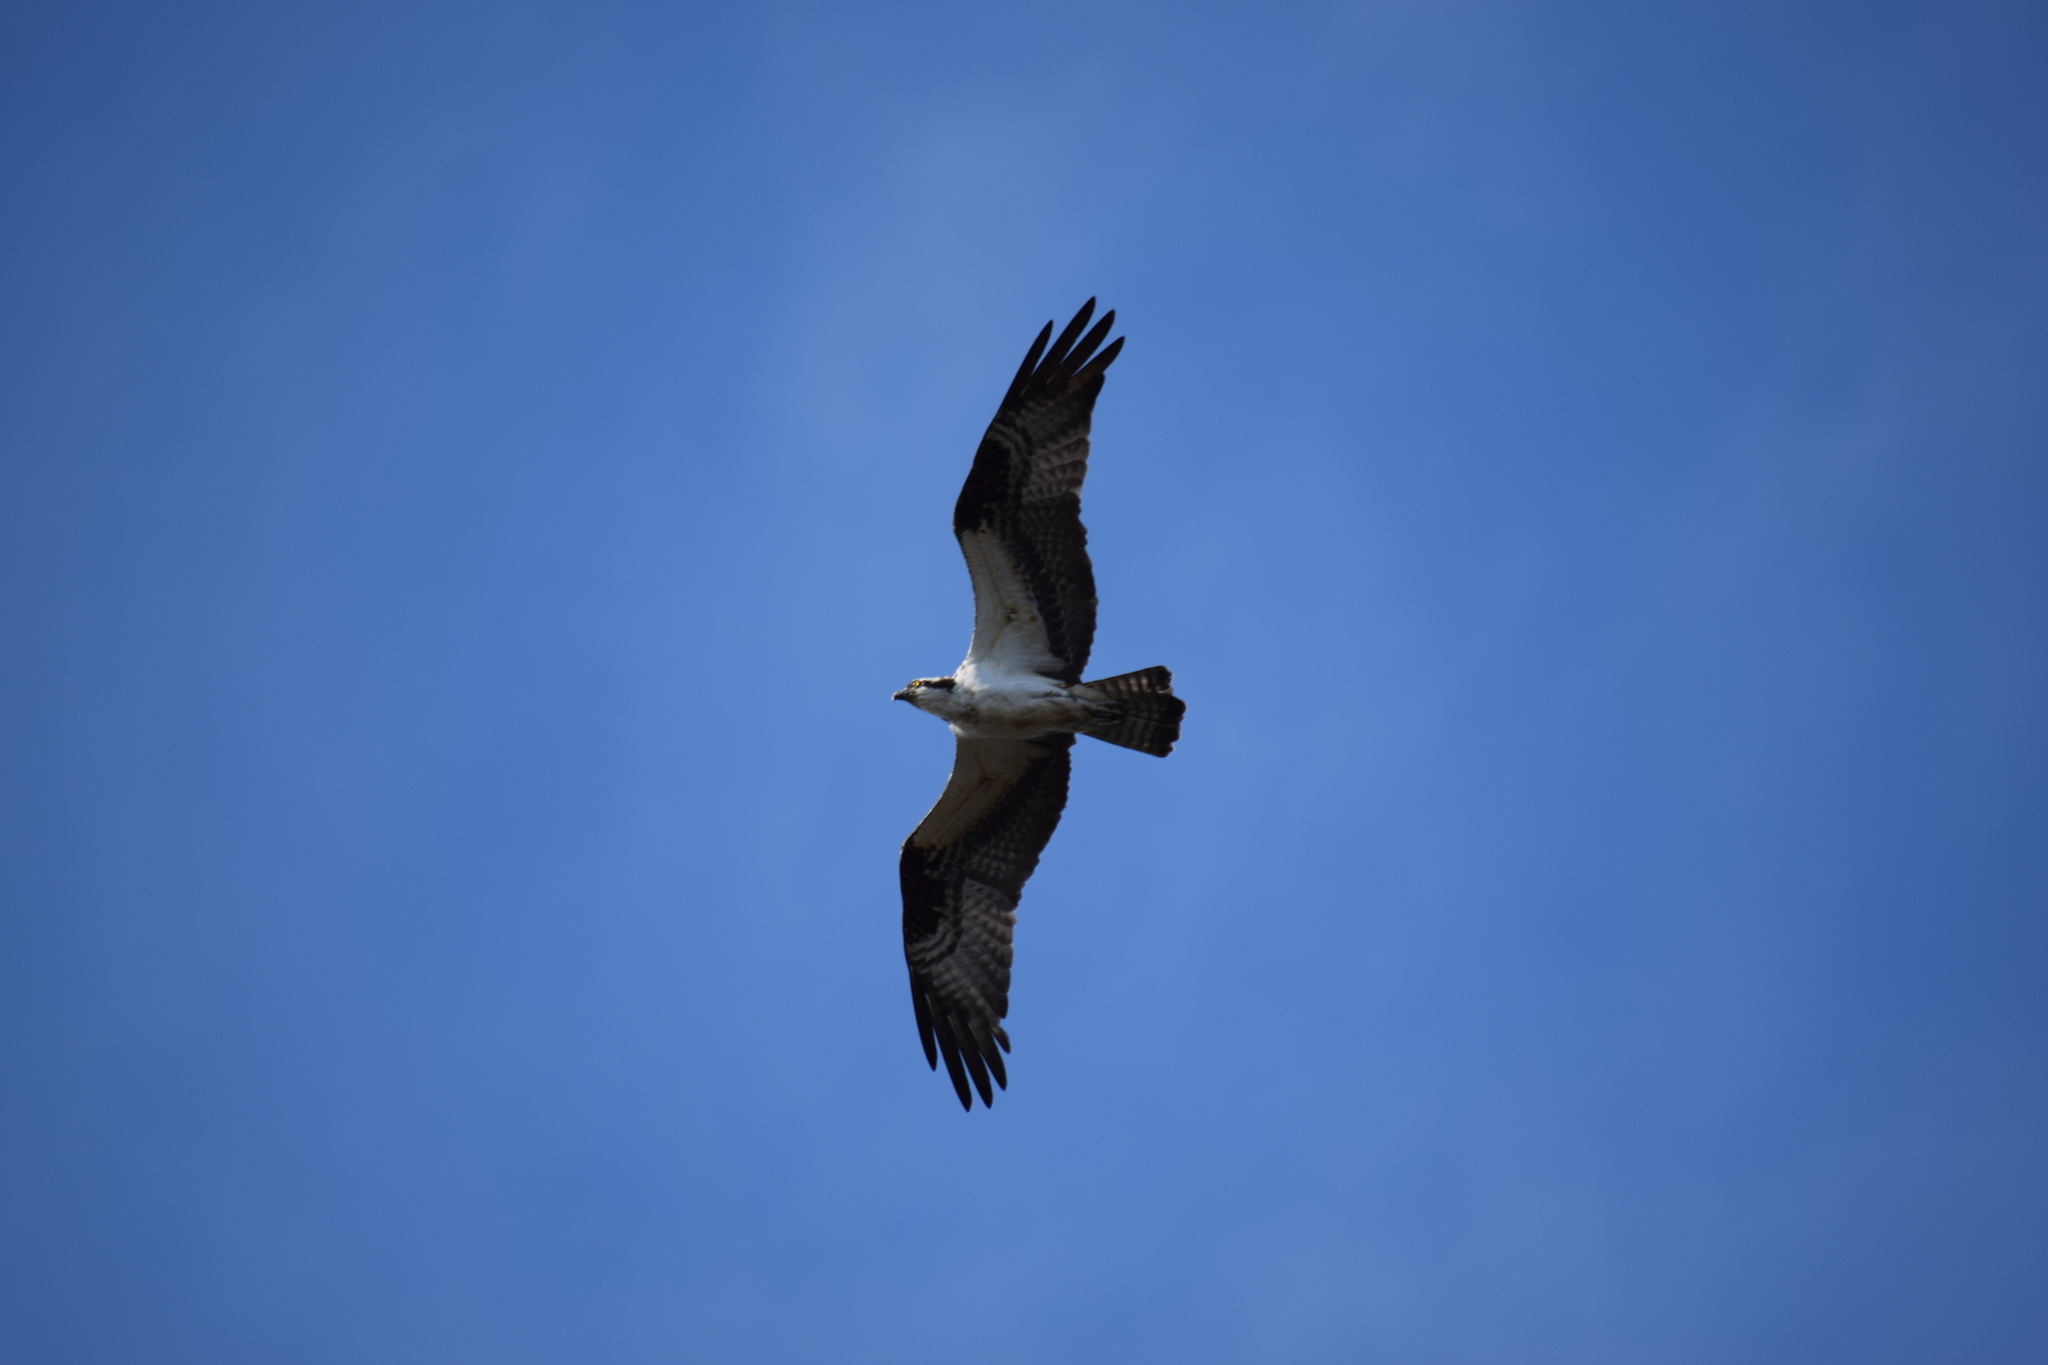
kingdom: Animalia
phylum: Chordata
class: Aves
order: Accipitriformes
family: Pandionidae
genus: Pandion
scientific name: Pandion haliaetus
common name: Osprey
